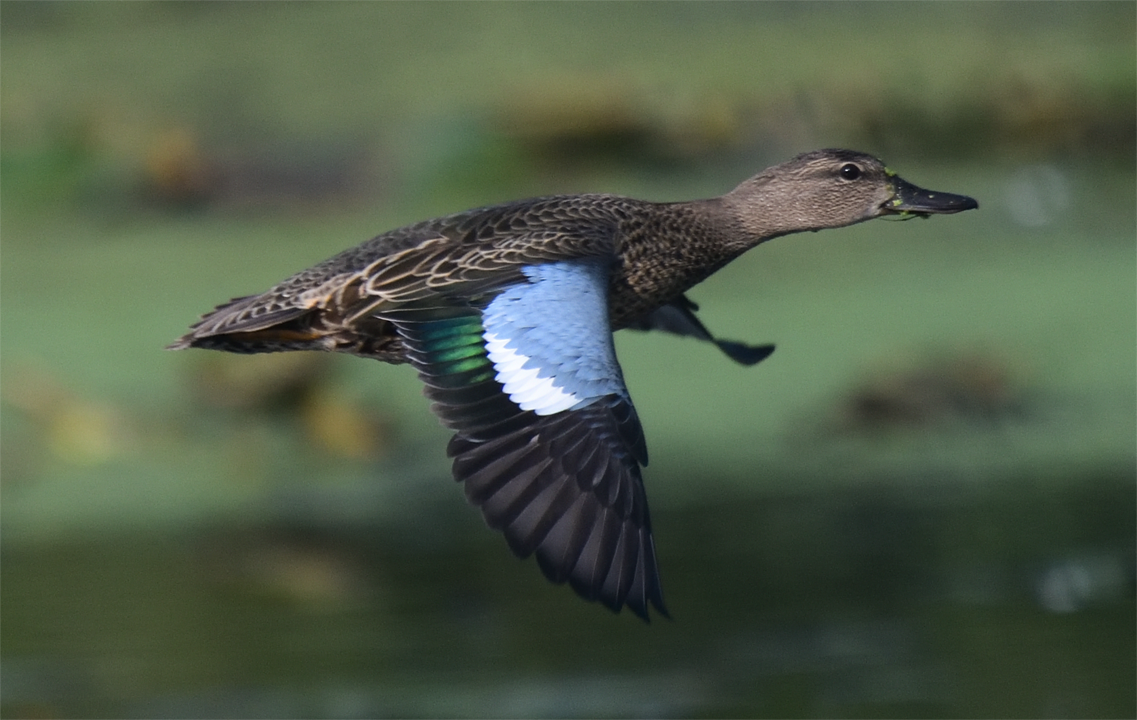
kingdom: Animalia
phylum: Chordata
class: Aves
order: Anseriformes
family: Anatidae
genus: Spatula
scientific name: Spatula discors
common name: Blue-winged teal
